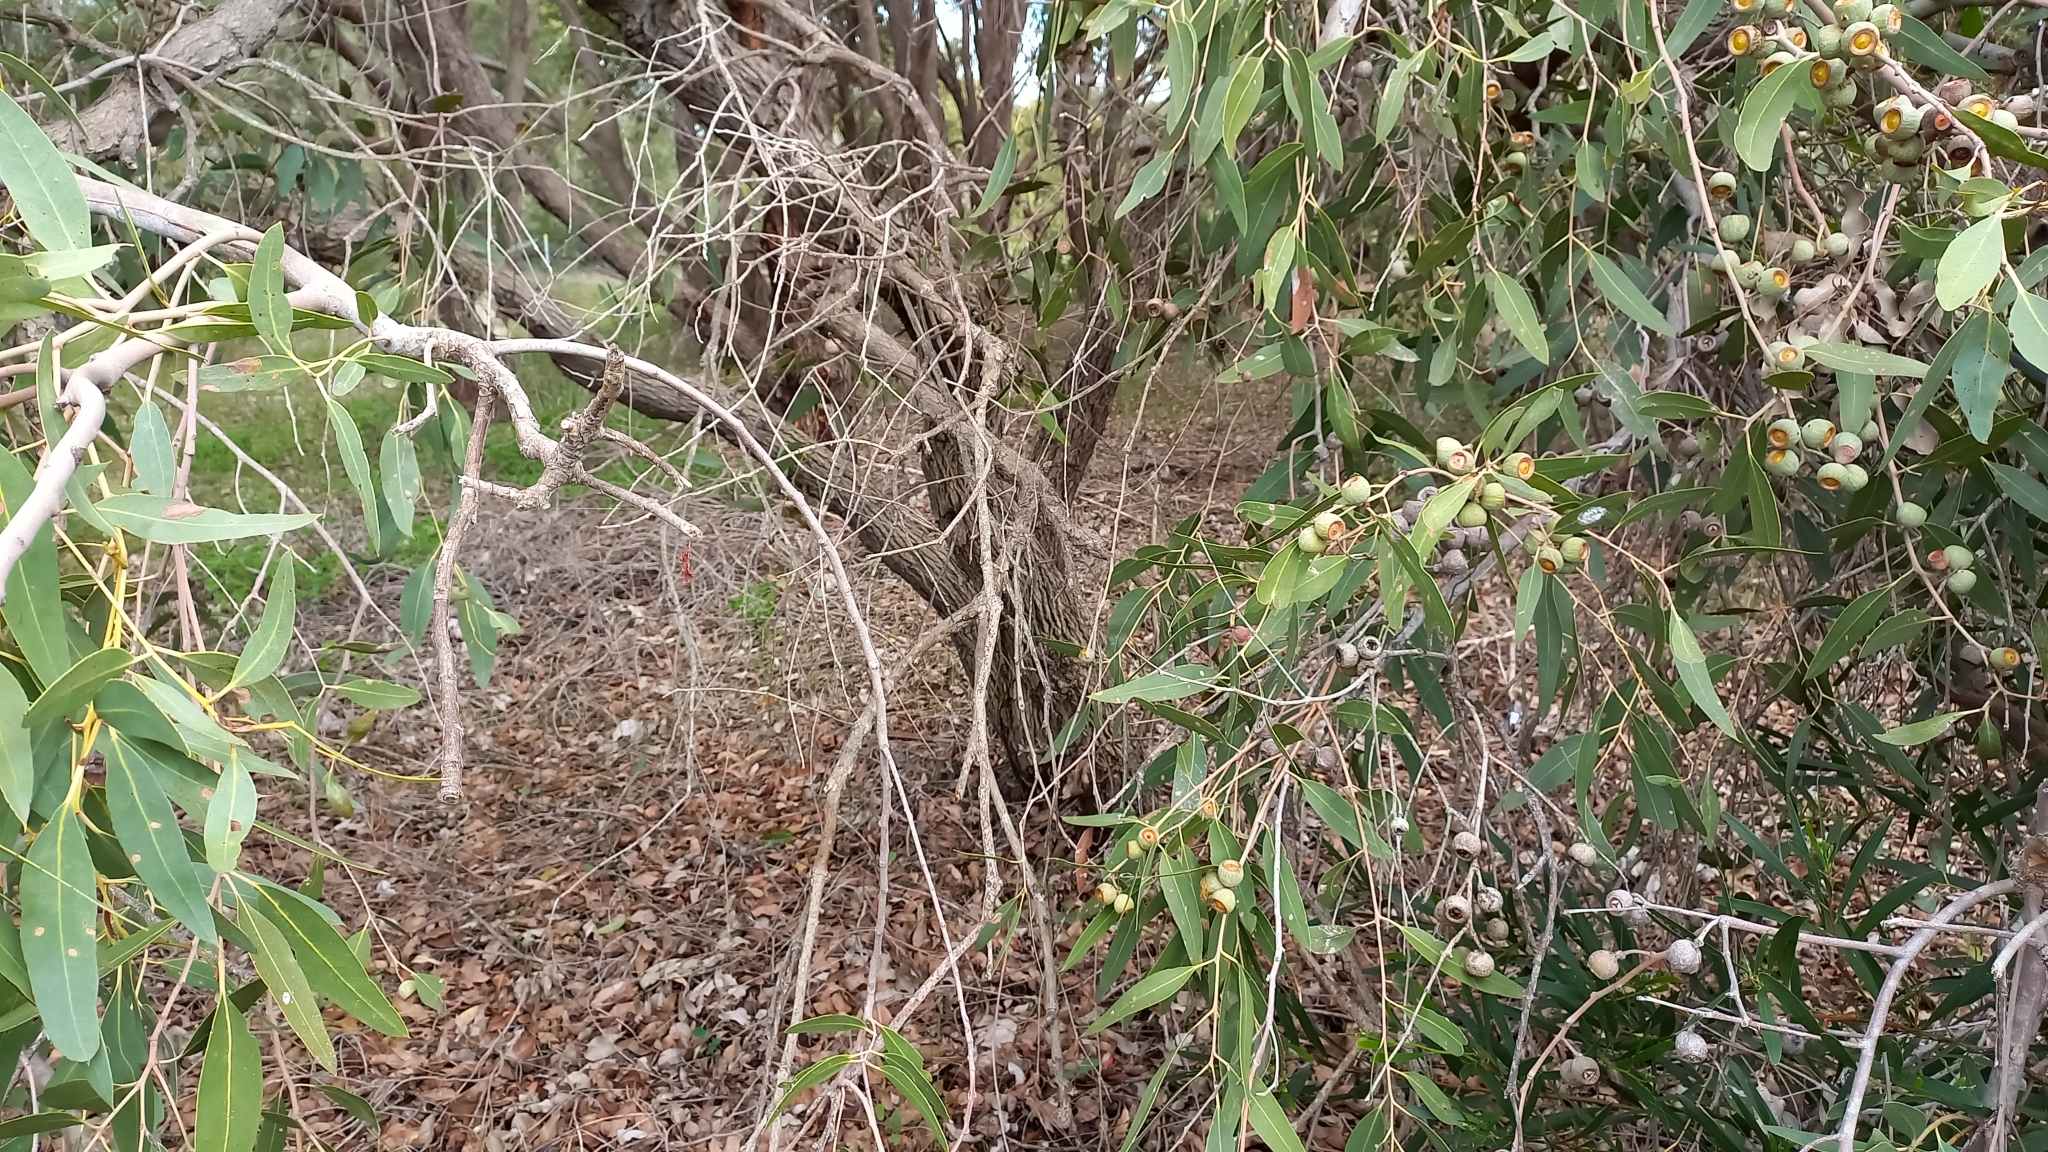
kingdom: Plantae
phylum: Tracheophyta
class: Magnoliopsida
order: Myrtales
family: Myrtaceae
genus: Eucalyptus
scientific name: Eucalyptus todtiana
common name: Coastal blackbutt
